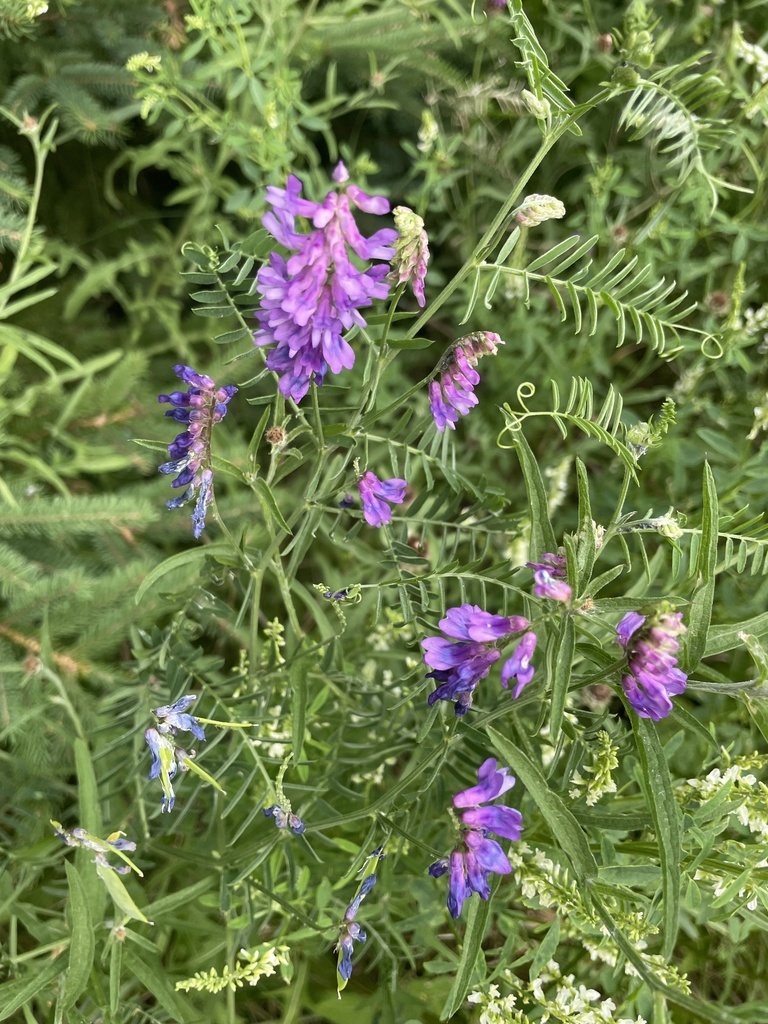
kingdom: Plantae
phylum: Tracheophyta
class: Magnoliopsida
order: Fabales
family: Fabaceae
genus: Vicia
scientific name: Vicia cracca
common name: Bird vetch
